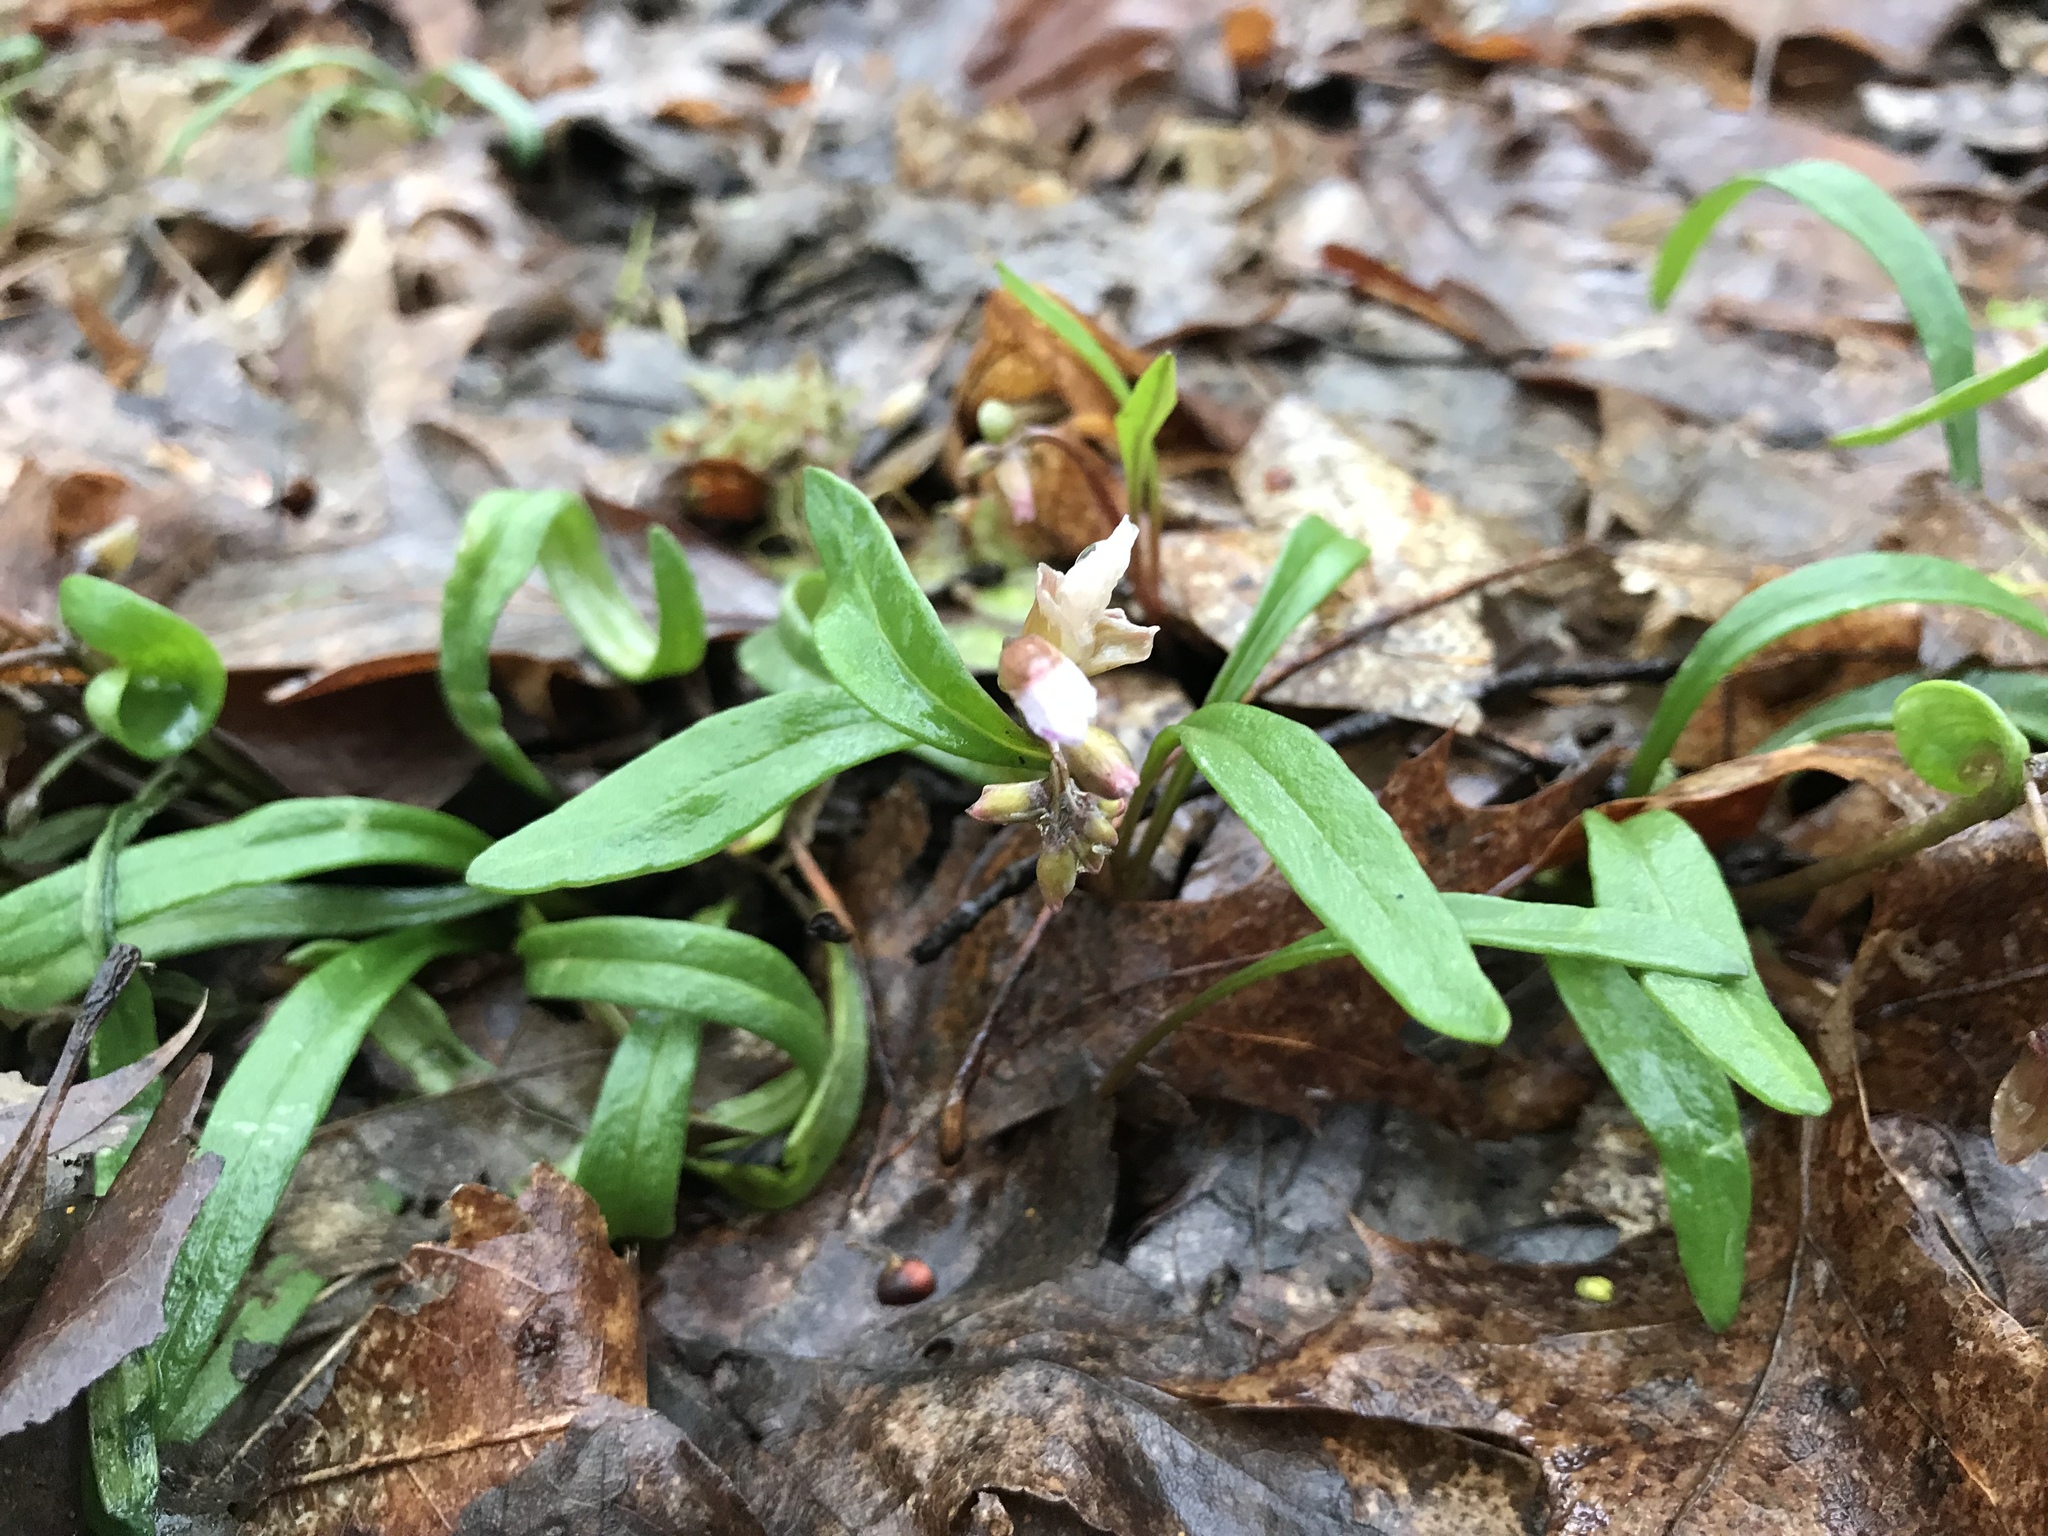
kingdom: Plantae
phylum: Tracheophyta
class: Magnoliopsida
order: Caryophyllales
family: Montiaceae
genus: Claytonia
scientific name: Claytonia virginica
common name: Virginia springbeauty
